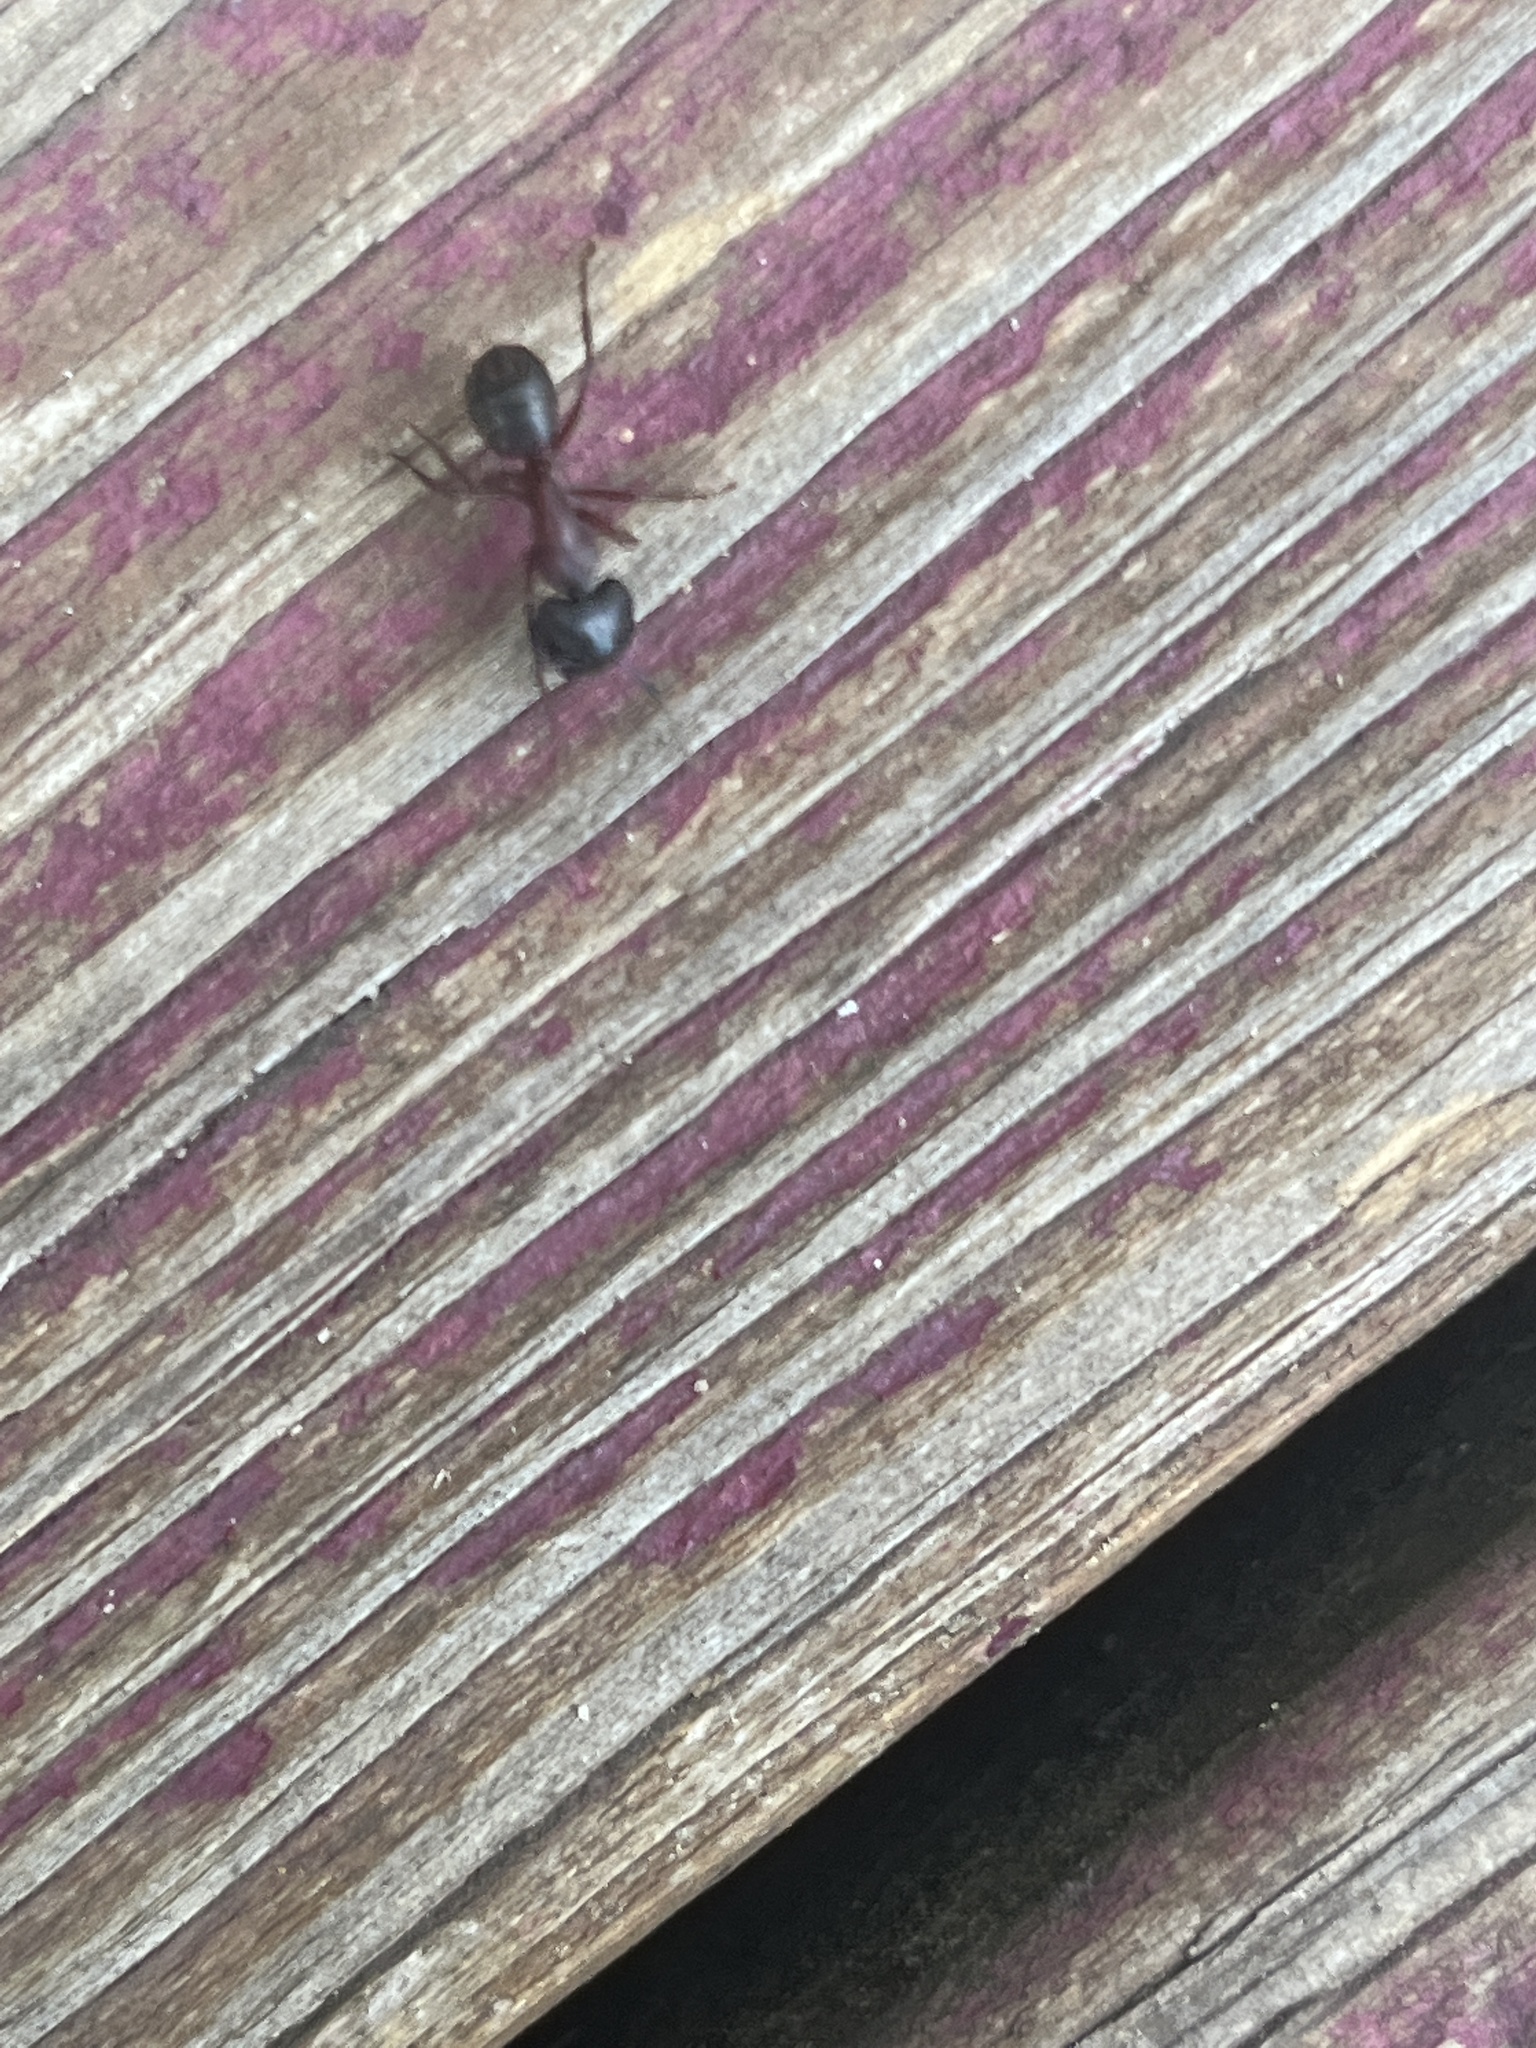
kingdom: Animalia
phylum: Arthropoda
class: Insecta
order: Hymenoptera
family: Formicidae
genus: Camponotus
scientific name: Camponotus novaeboracensis
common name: New york carpenter ant
